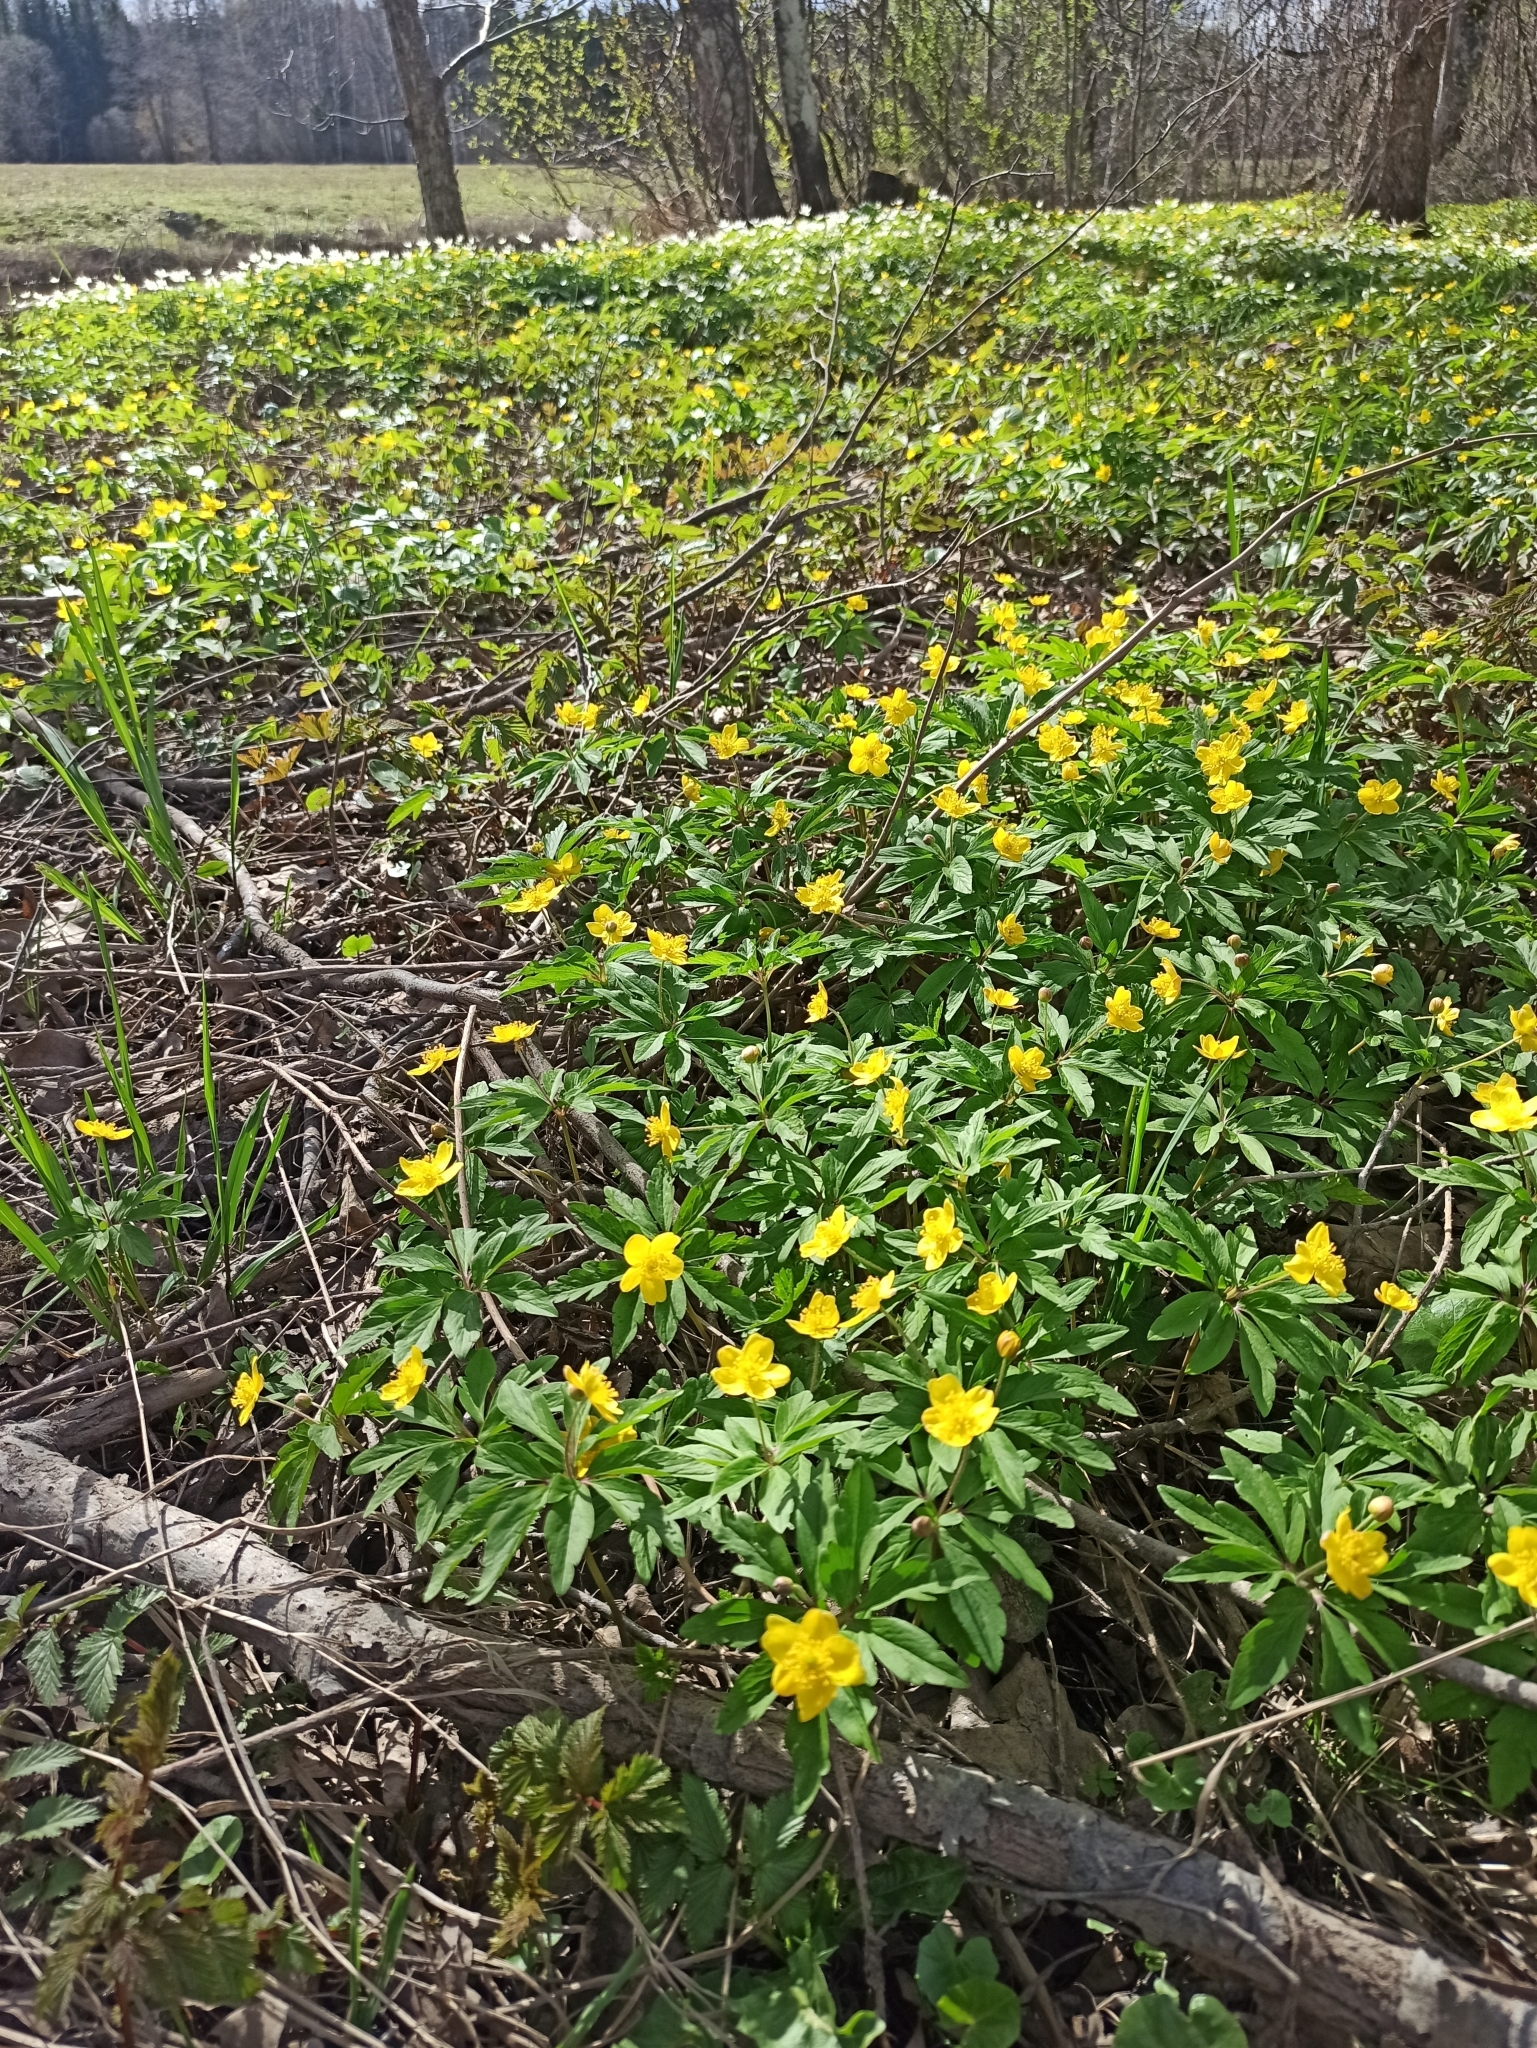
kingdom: Plantae
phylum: Tracheophyta
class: Magnoliopsida
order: Ranunculales
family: Ranunculaceae
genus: Anemone
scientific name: Anemone ranunculoides
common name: Yellow anemone
